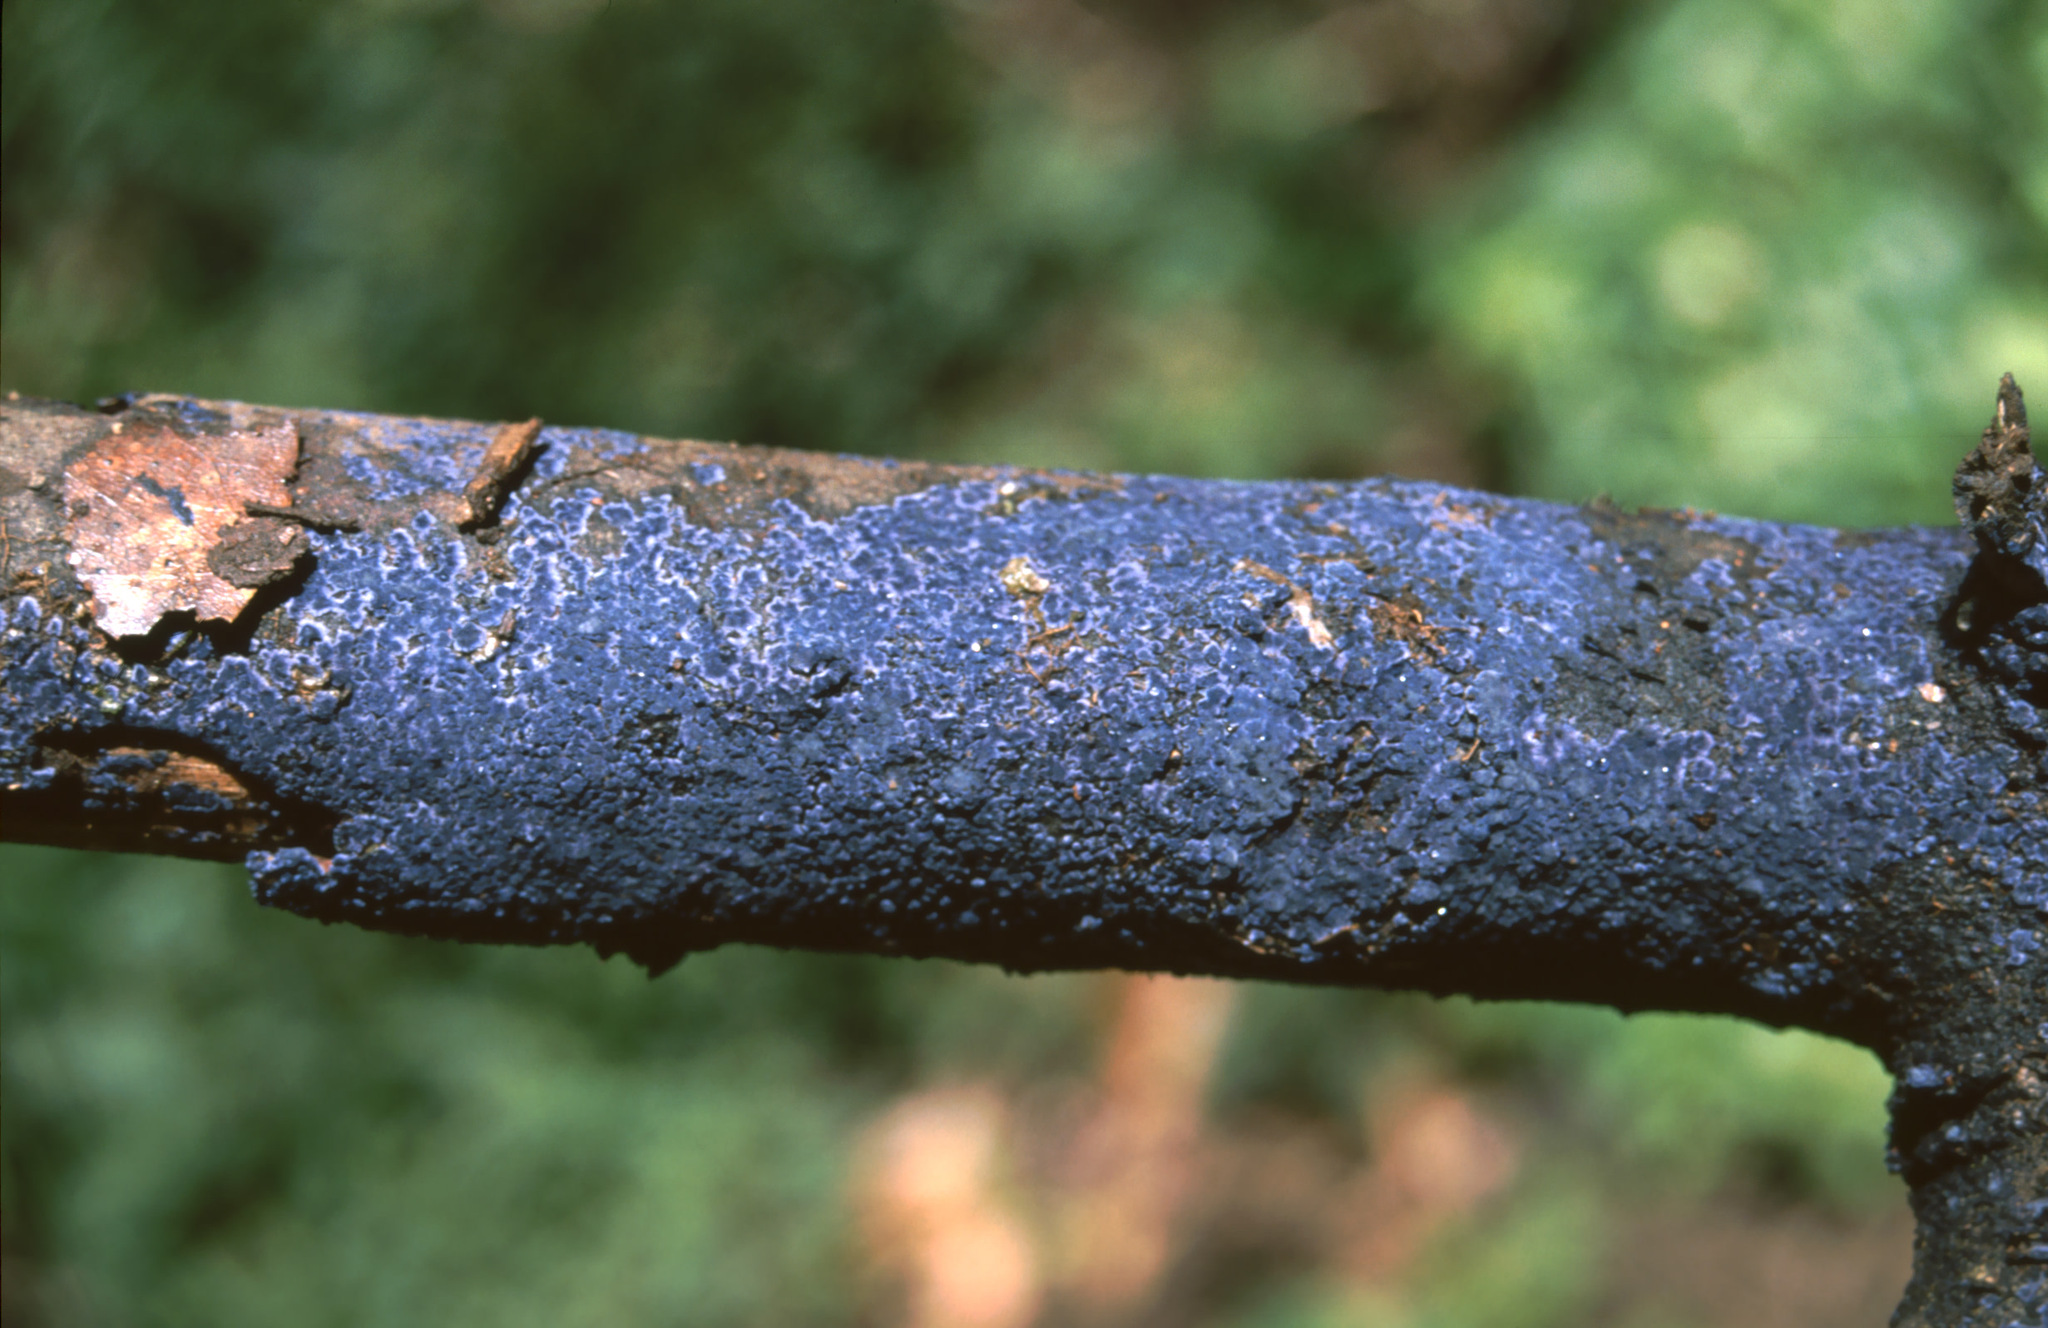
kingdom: Fungi
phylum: Basidiomycota
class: Agaricomycetes
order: Polyporales
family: Phanerochaetaceae
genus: Terana
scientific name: Terana coerulea
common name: Cobalt crust
